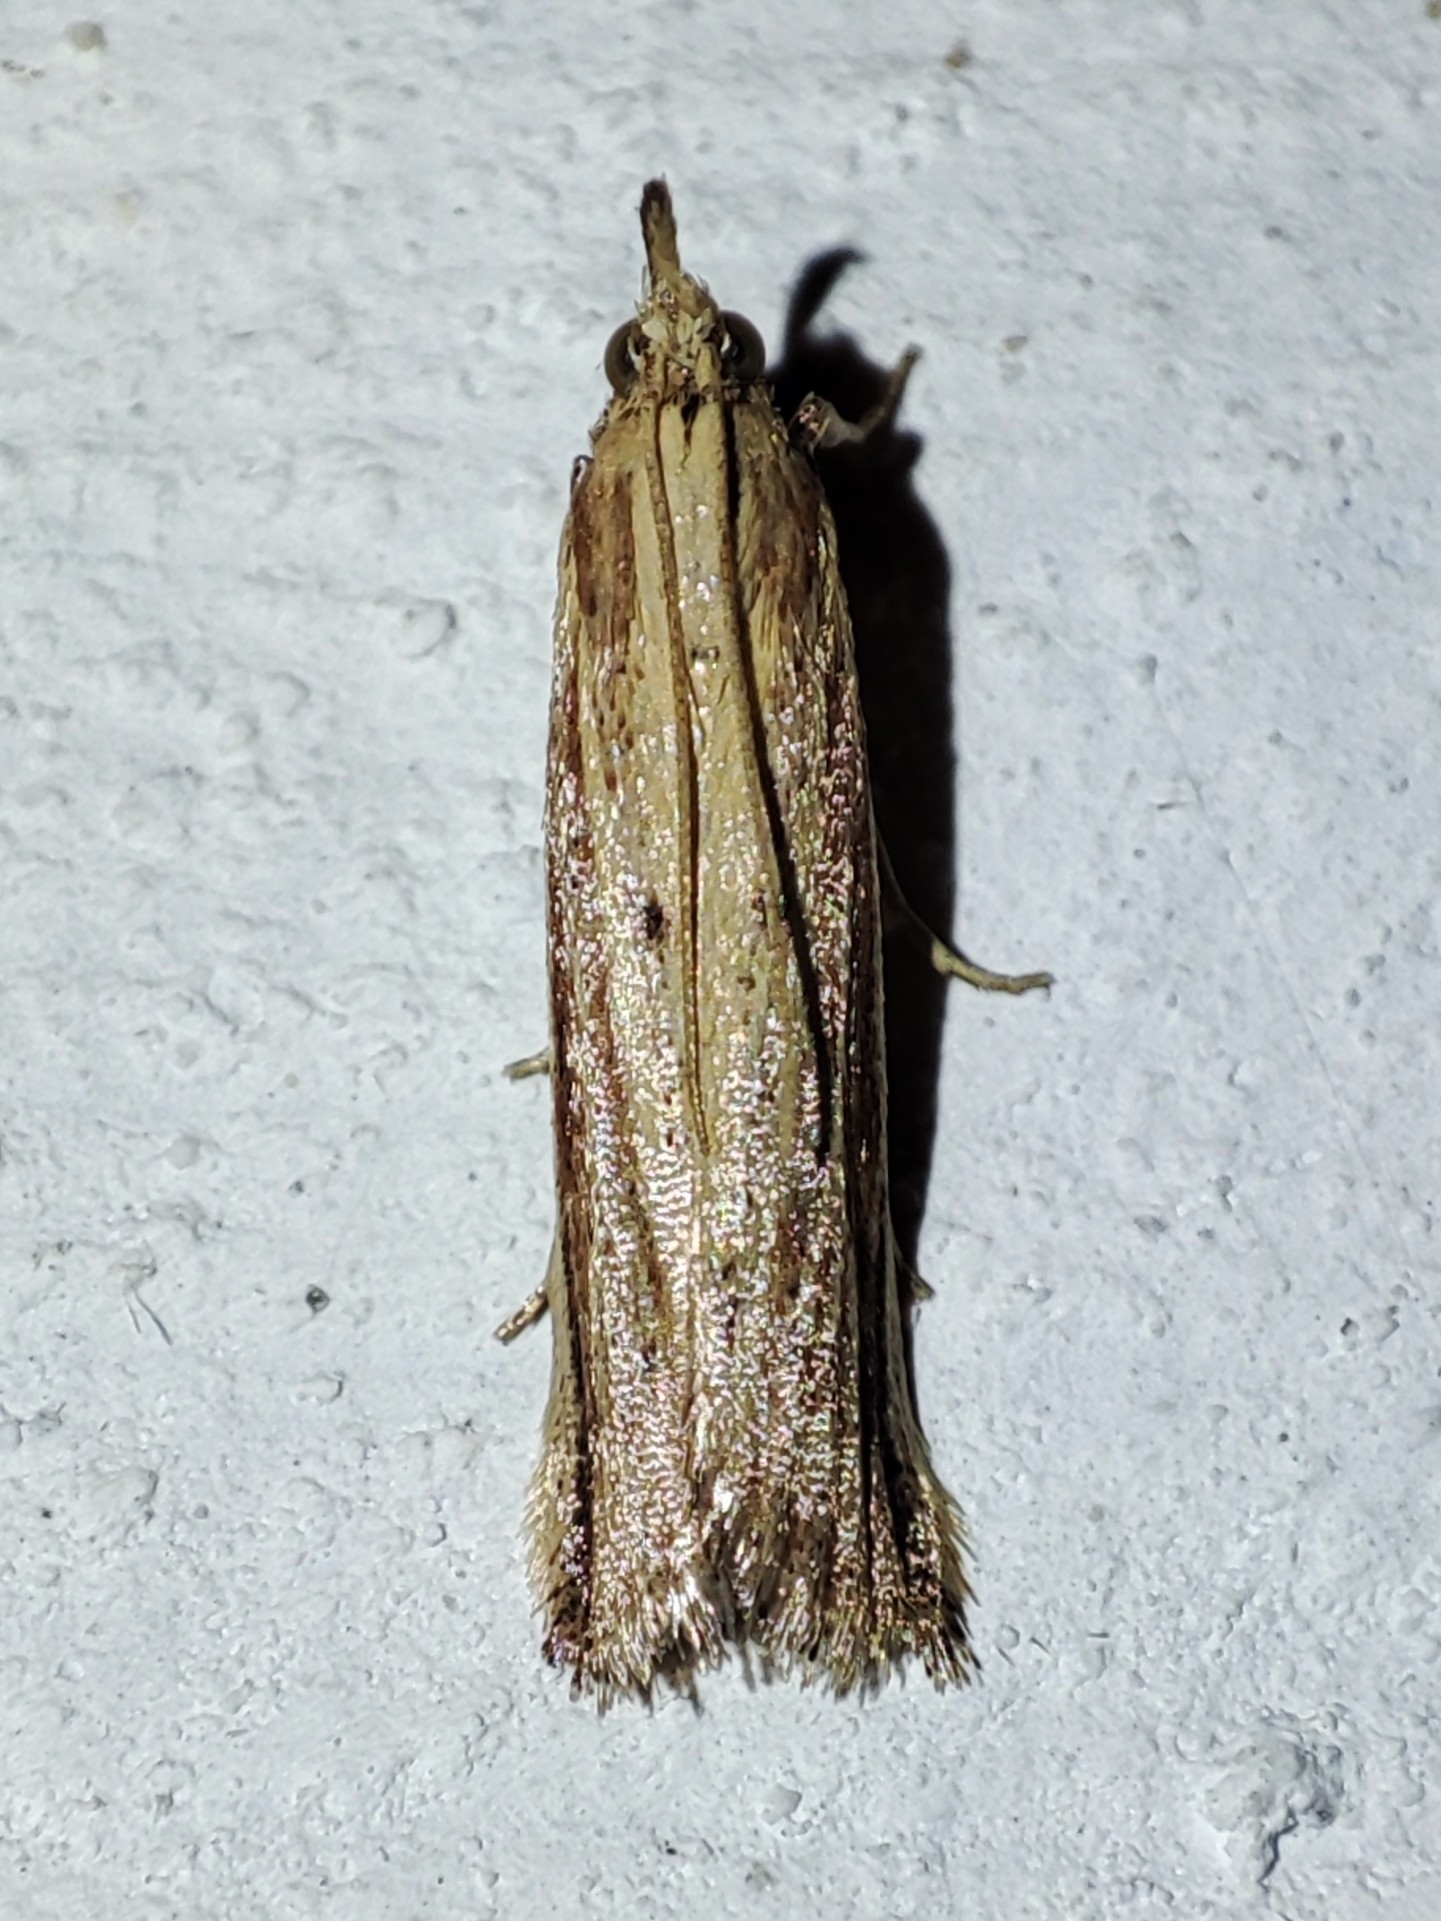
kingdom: Animalia
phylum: Arthropoda
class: Insecta
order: Lepidoptera
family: Pyralidae
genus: Hypsotropa
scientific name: Hypsotropa unipunctella
